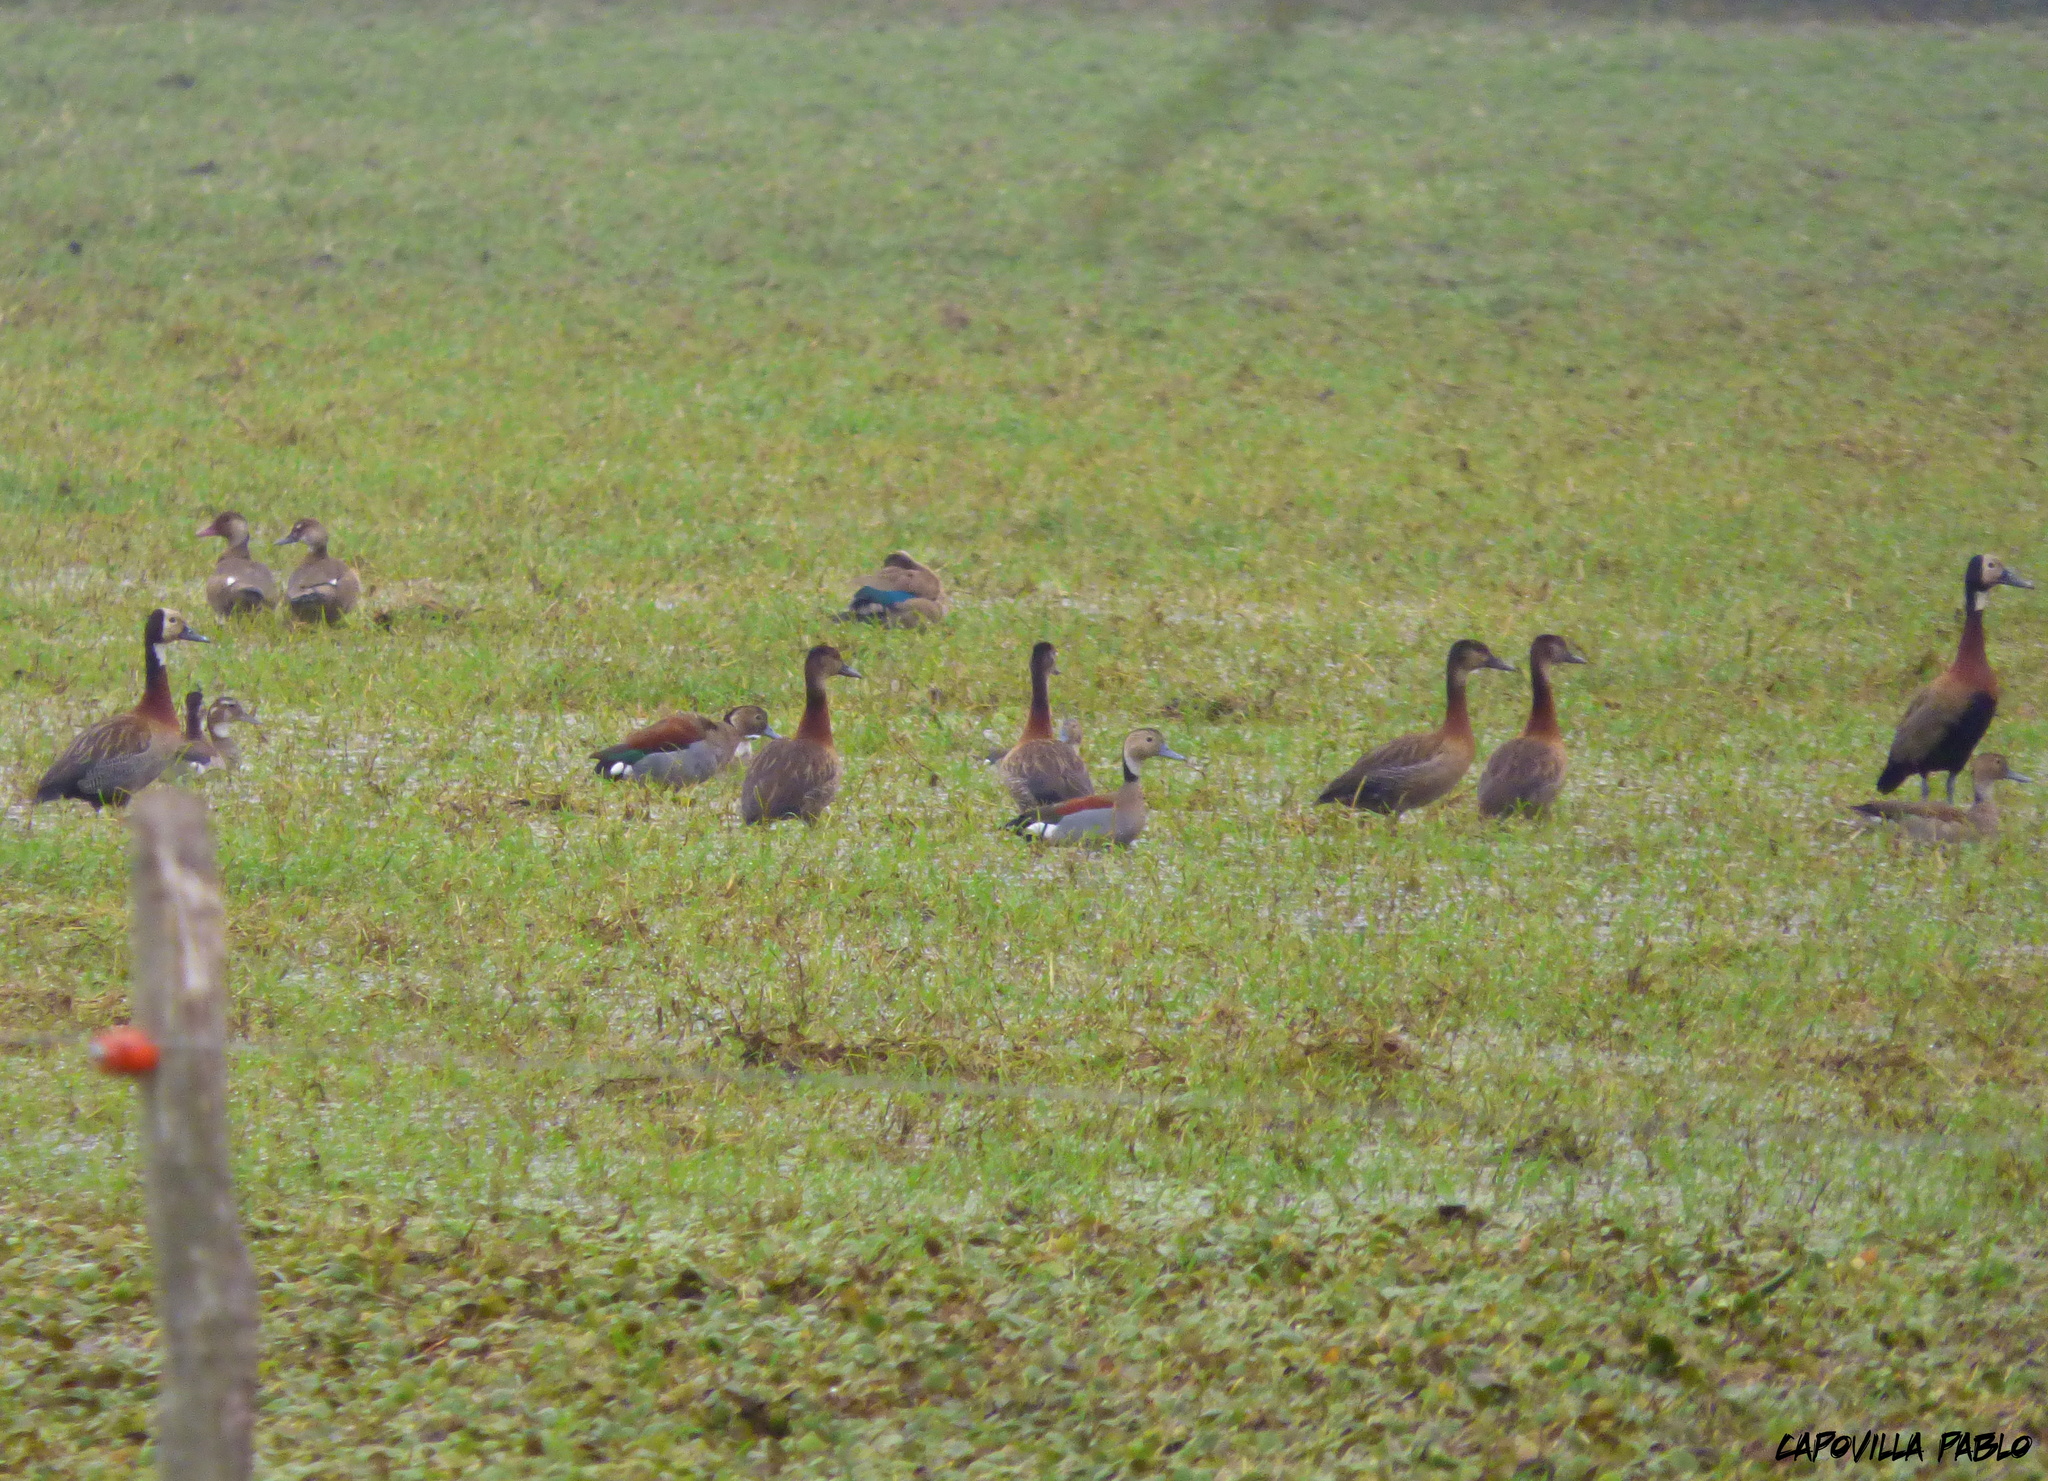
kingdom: Animalia
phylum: Chordata
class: Aves
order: Anseriformes
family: Anatidae
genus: Dendrocygna
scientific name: Dendrocygna viduata
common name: White-faced whistling duck
